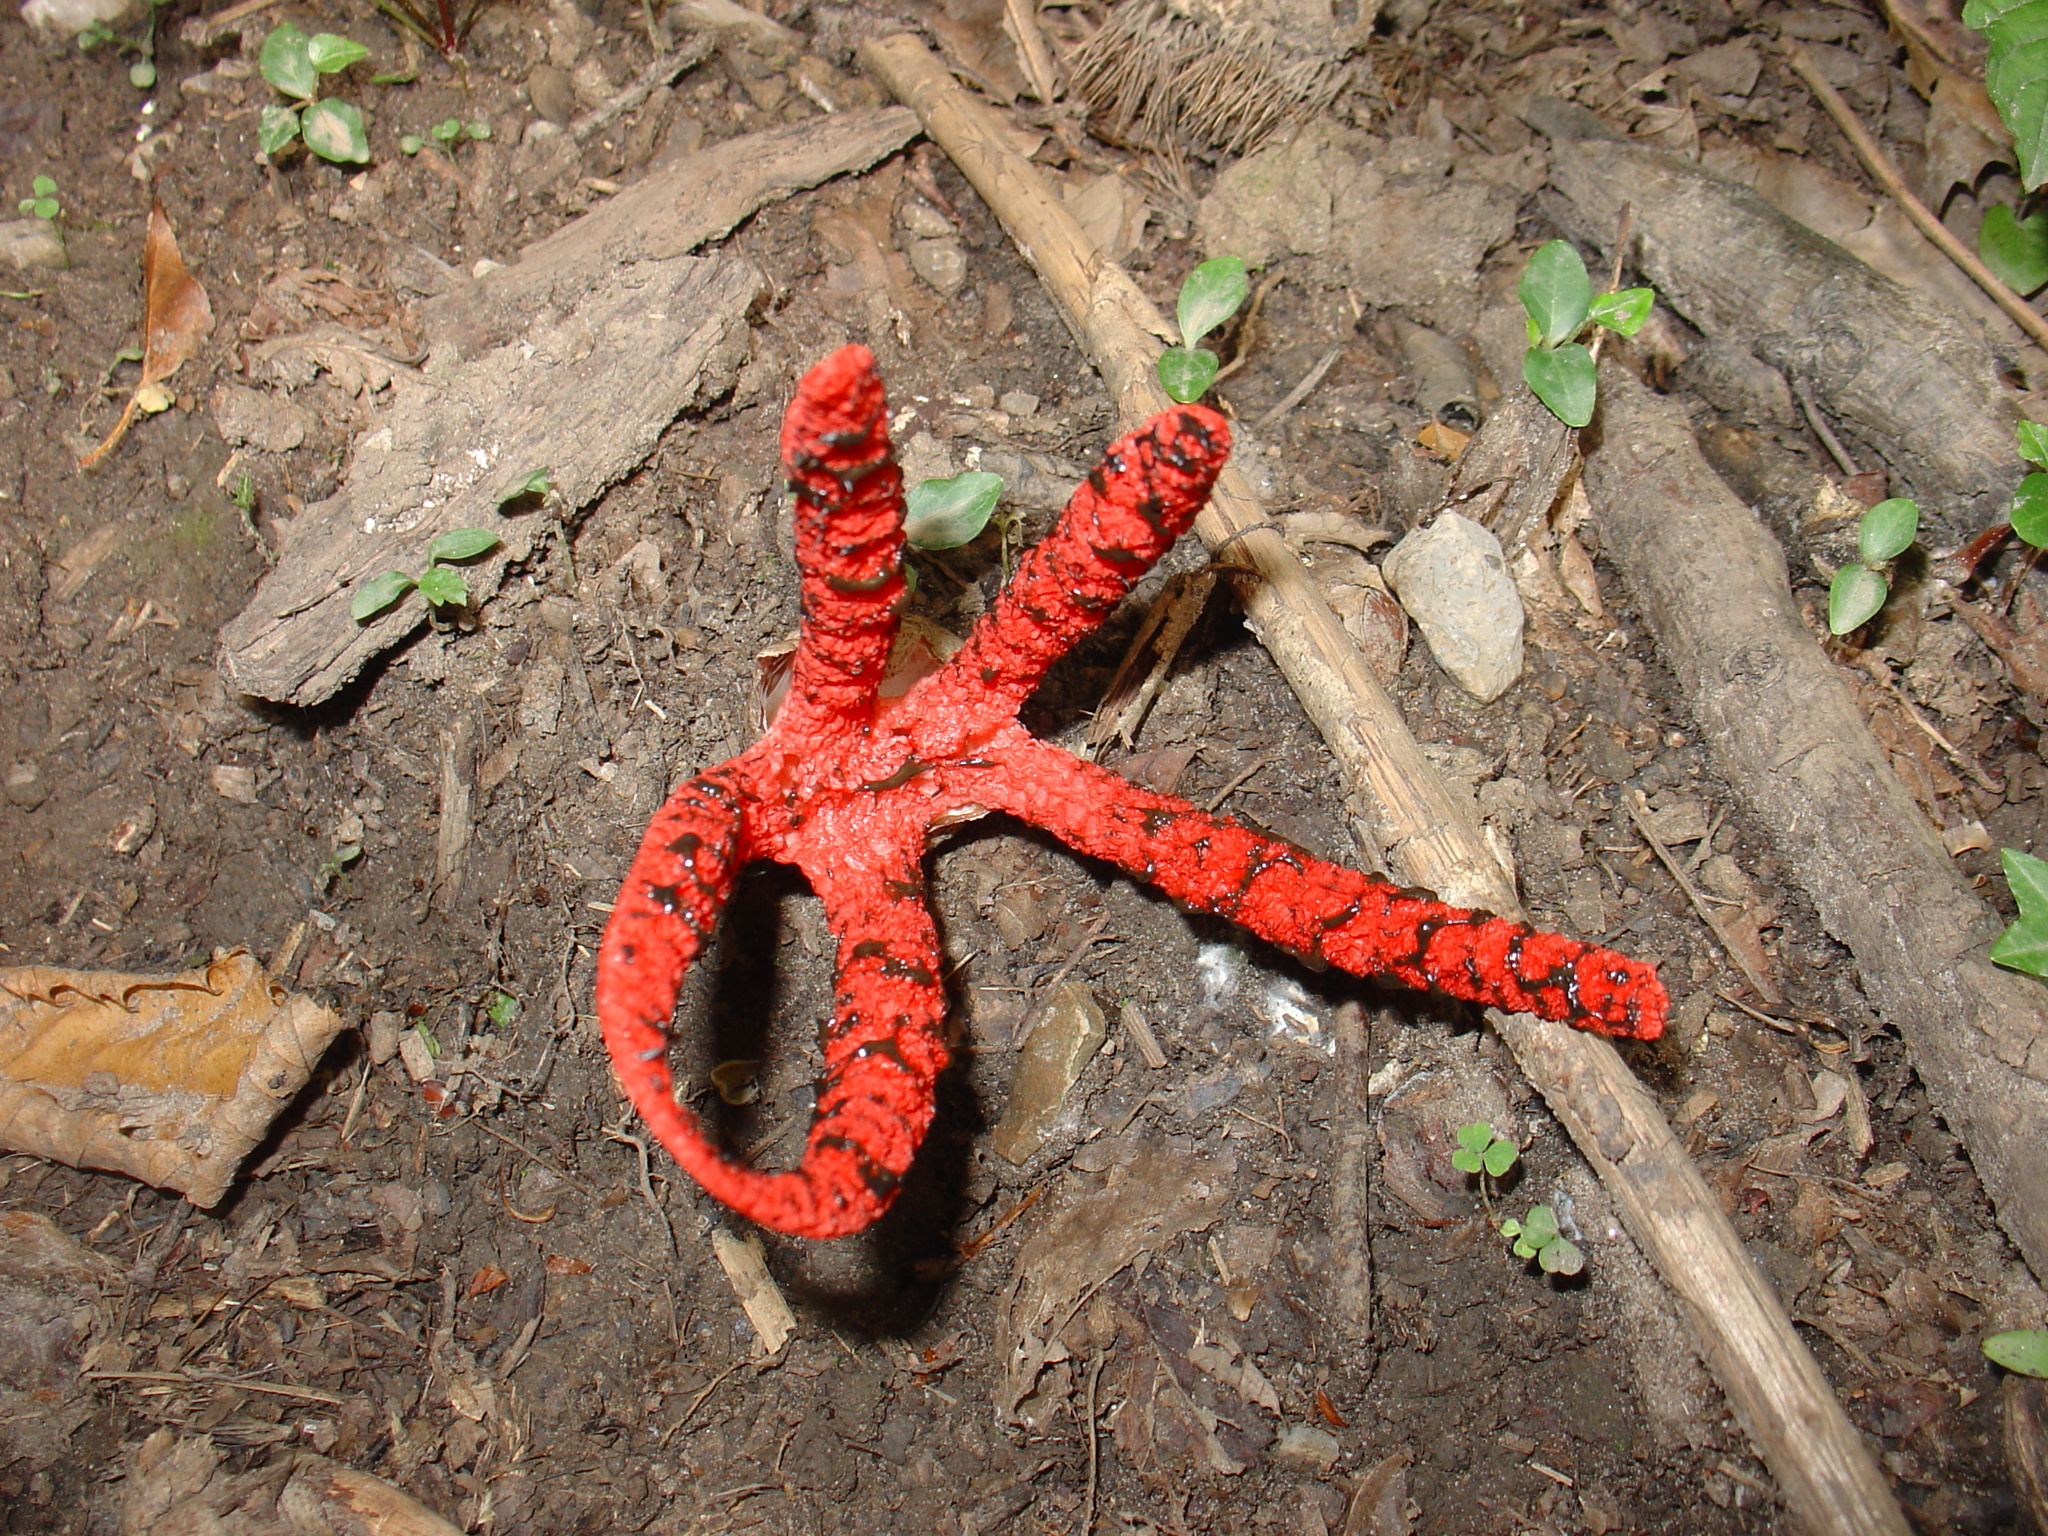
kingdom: Fungi
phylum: Basidiomycota
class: Agaricomycetes
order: Phallales
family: Phallaceae
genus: Clathrus
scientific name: Clathrus archeri
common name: Devil's fingers
